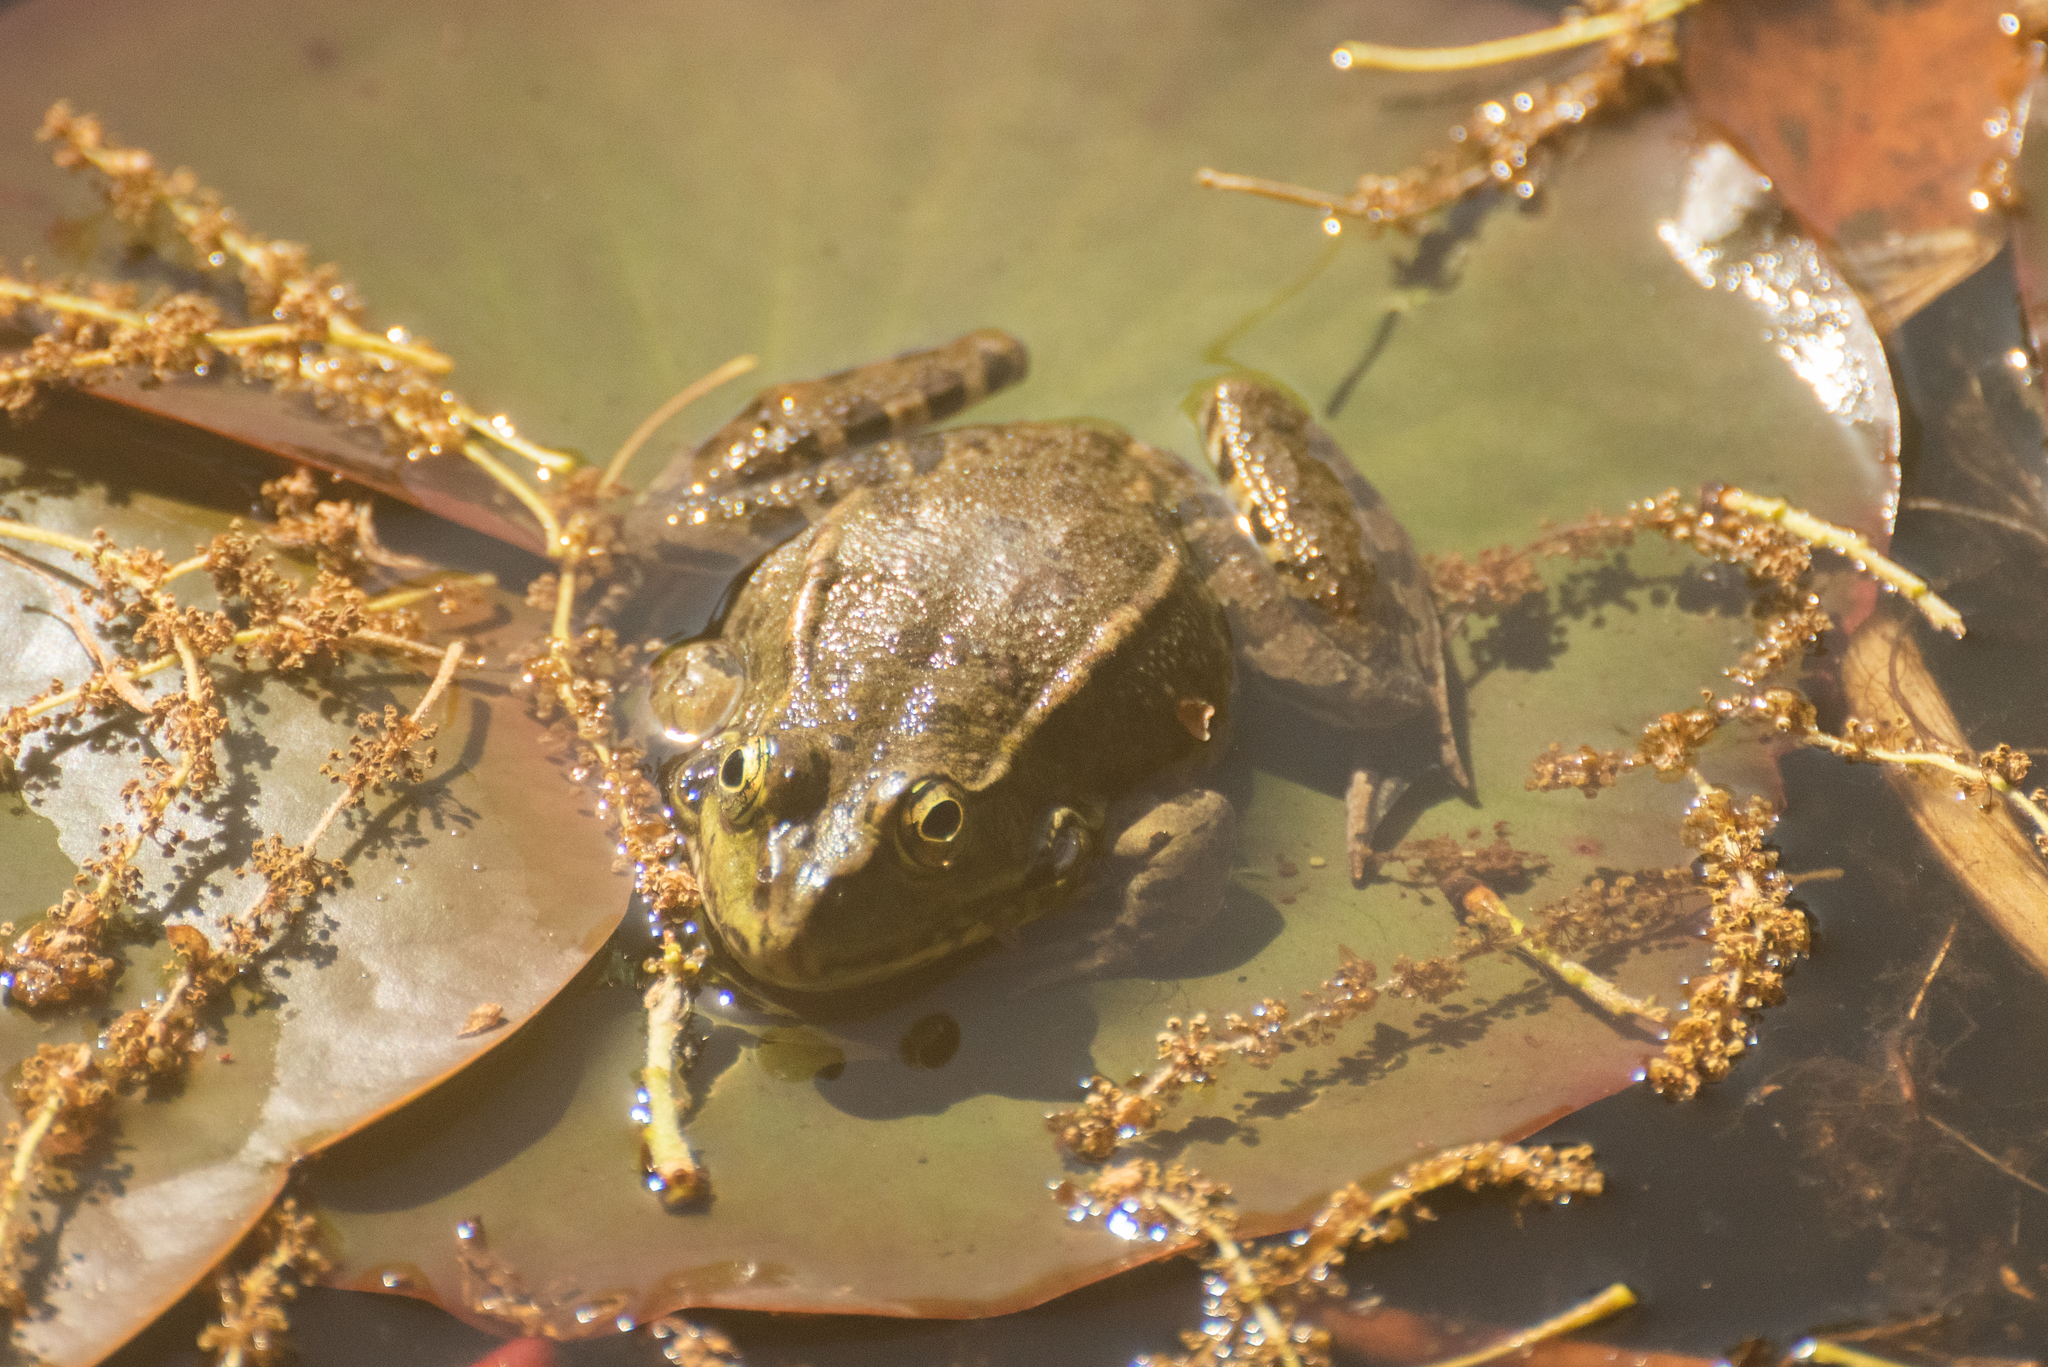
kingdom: Animalia
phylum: Chordata
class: Amphibia
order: Anura
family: Ranidae
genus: Pelophylax
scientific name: Pelophylax ridibundus
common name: Marsh frog
